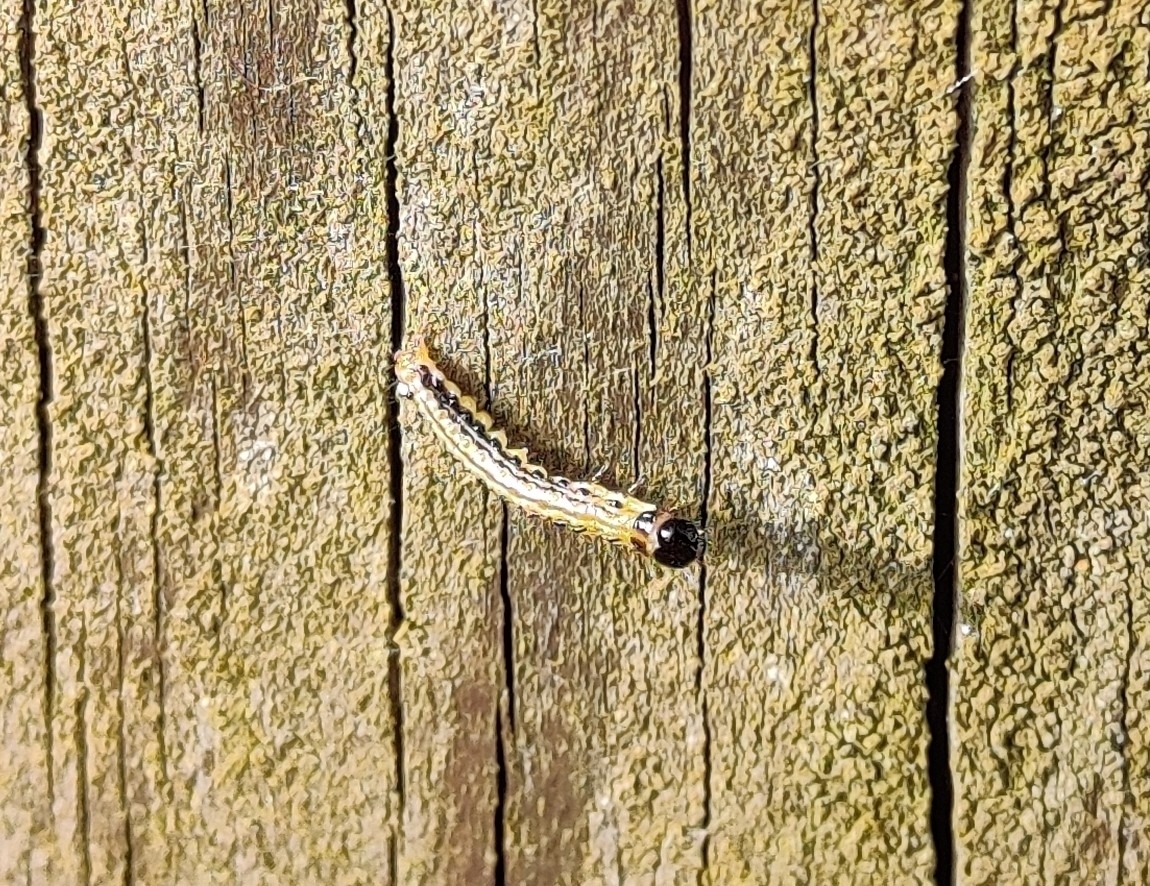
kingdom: Animalia
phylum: Arthropoda
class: Insecta
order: Lepidoptera
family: Crambidae
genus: Cydalima
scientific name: Cydalima perspectalis
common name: Box tree moth
